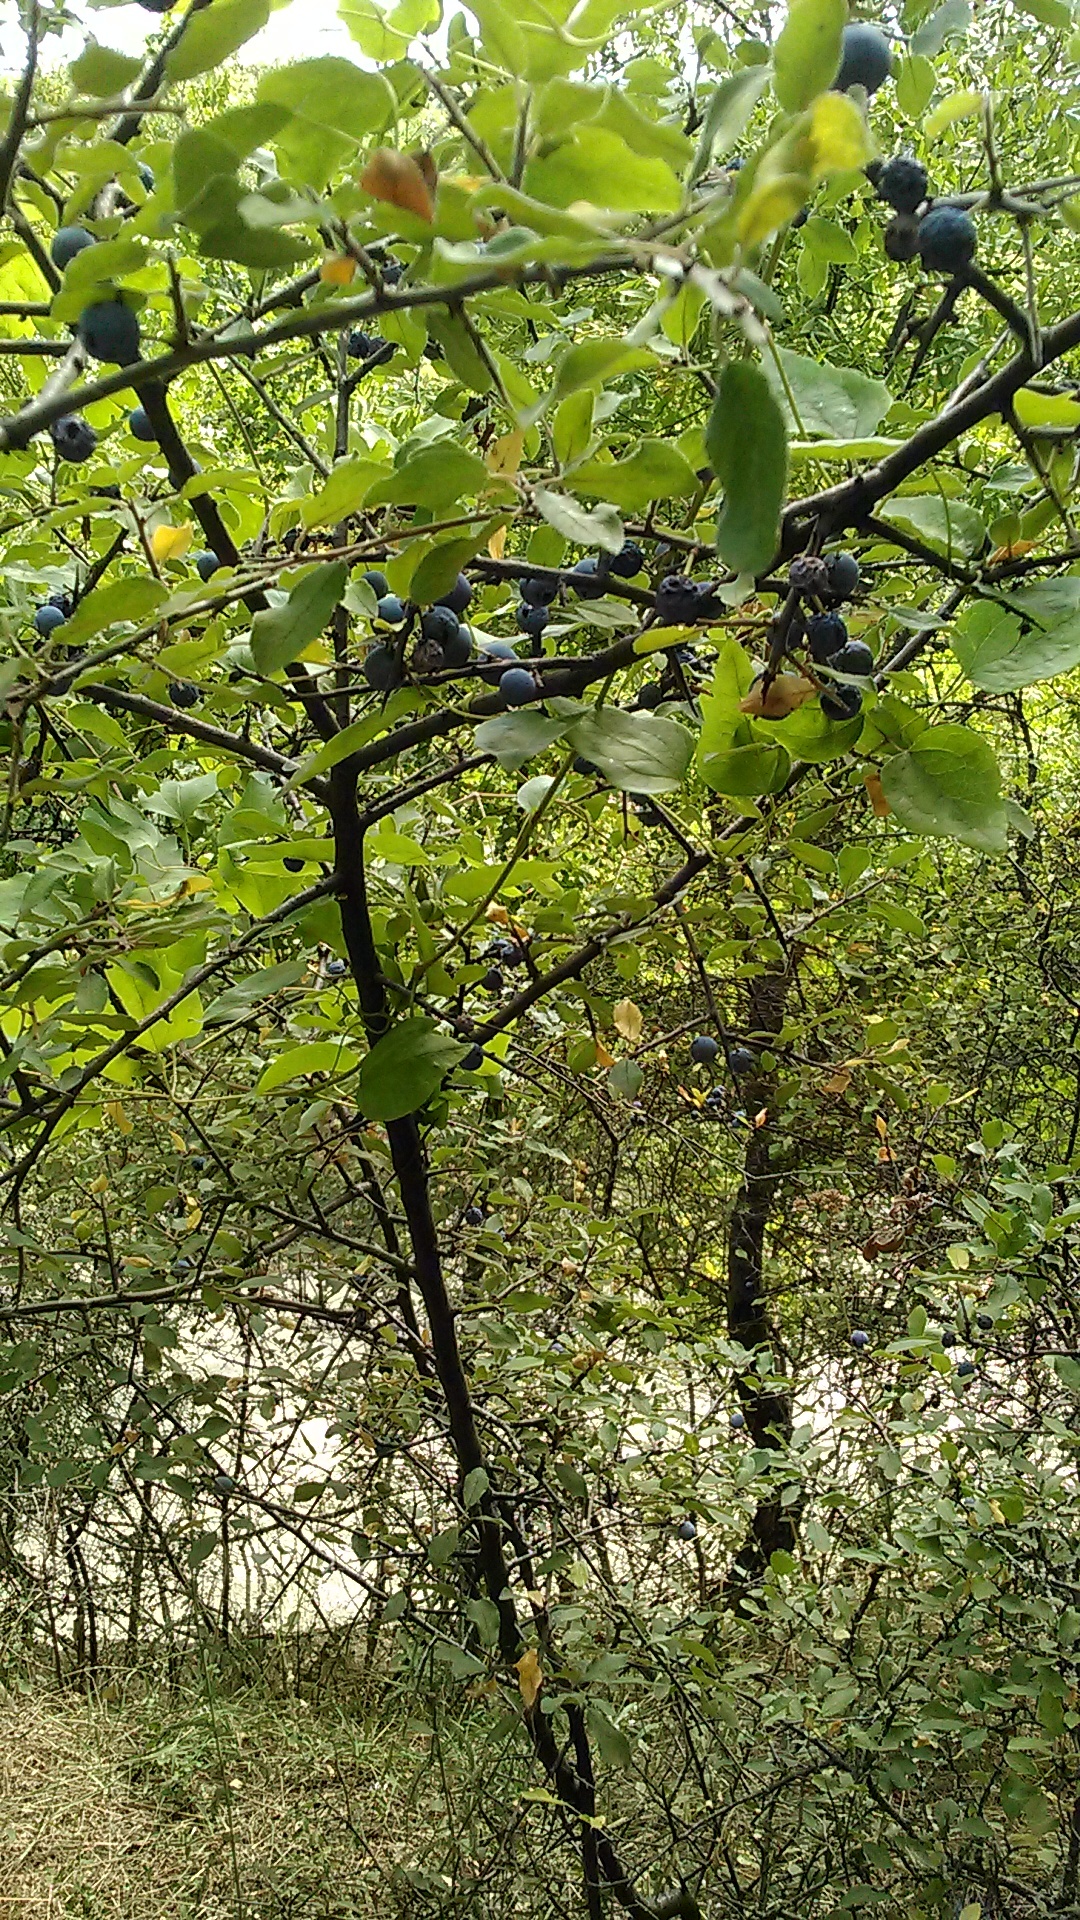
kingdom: Plantae
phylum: Tracheophyta
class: Magnoliopsida
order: Rosales
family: Rosaceae
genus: Prunus
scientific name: Prunus spinosa
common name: Blackthorn
